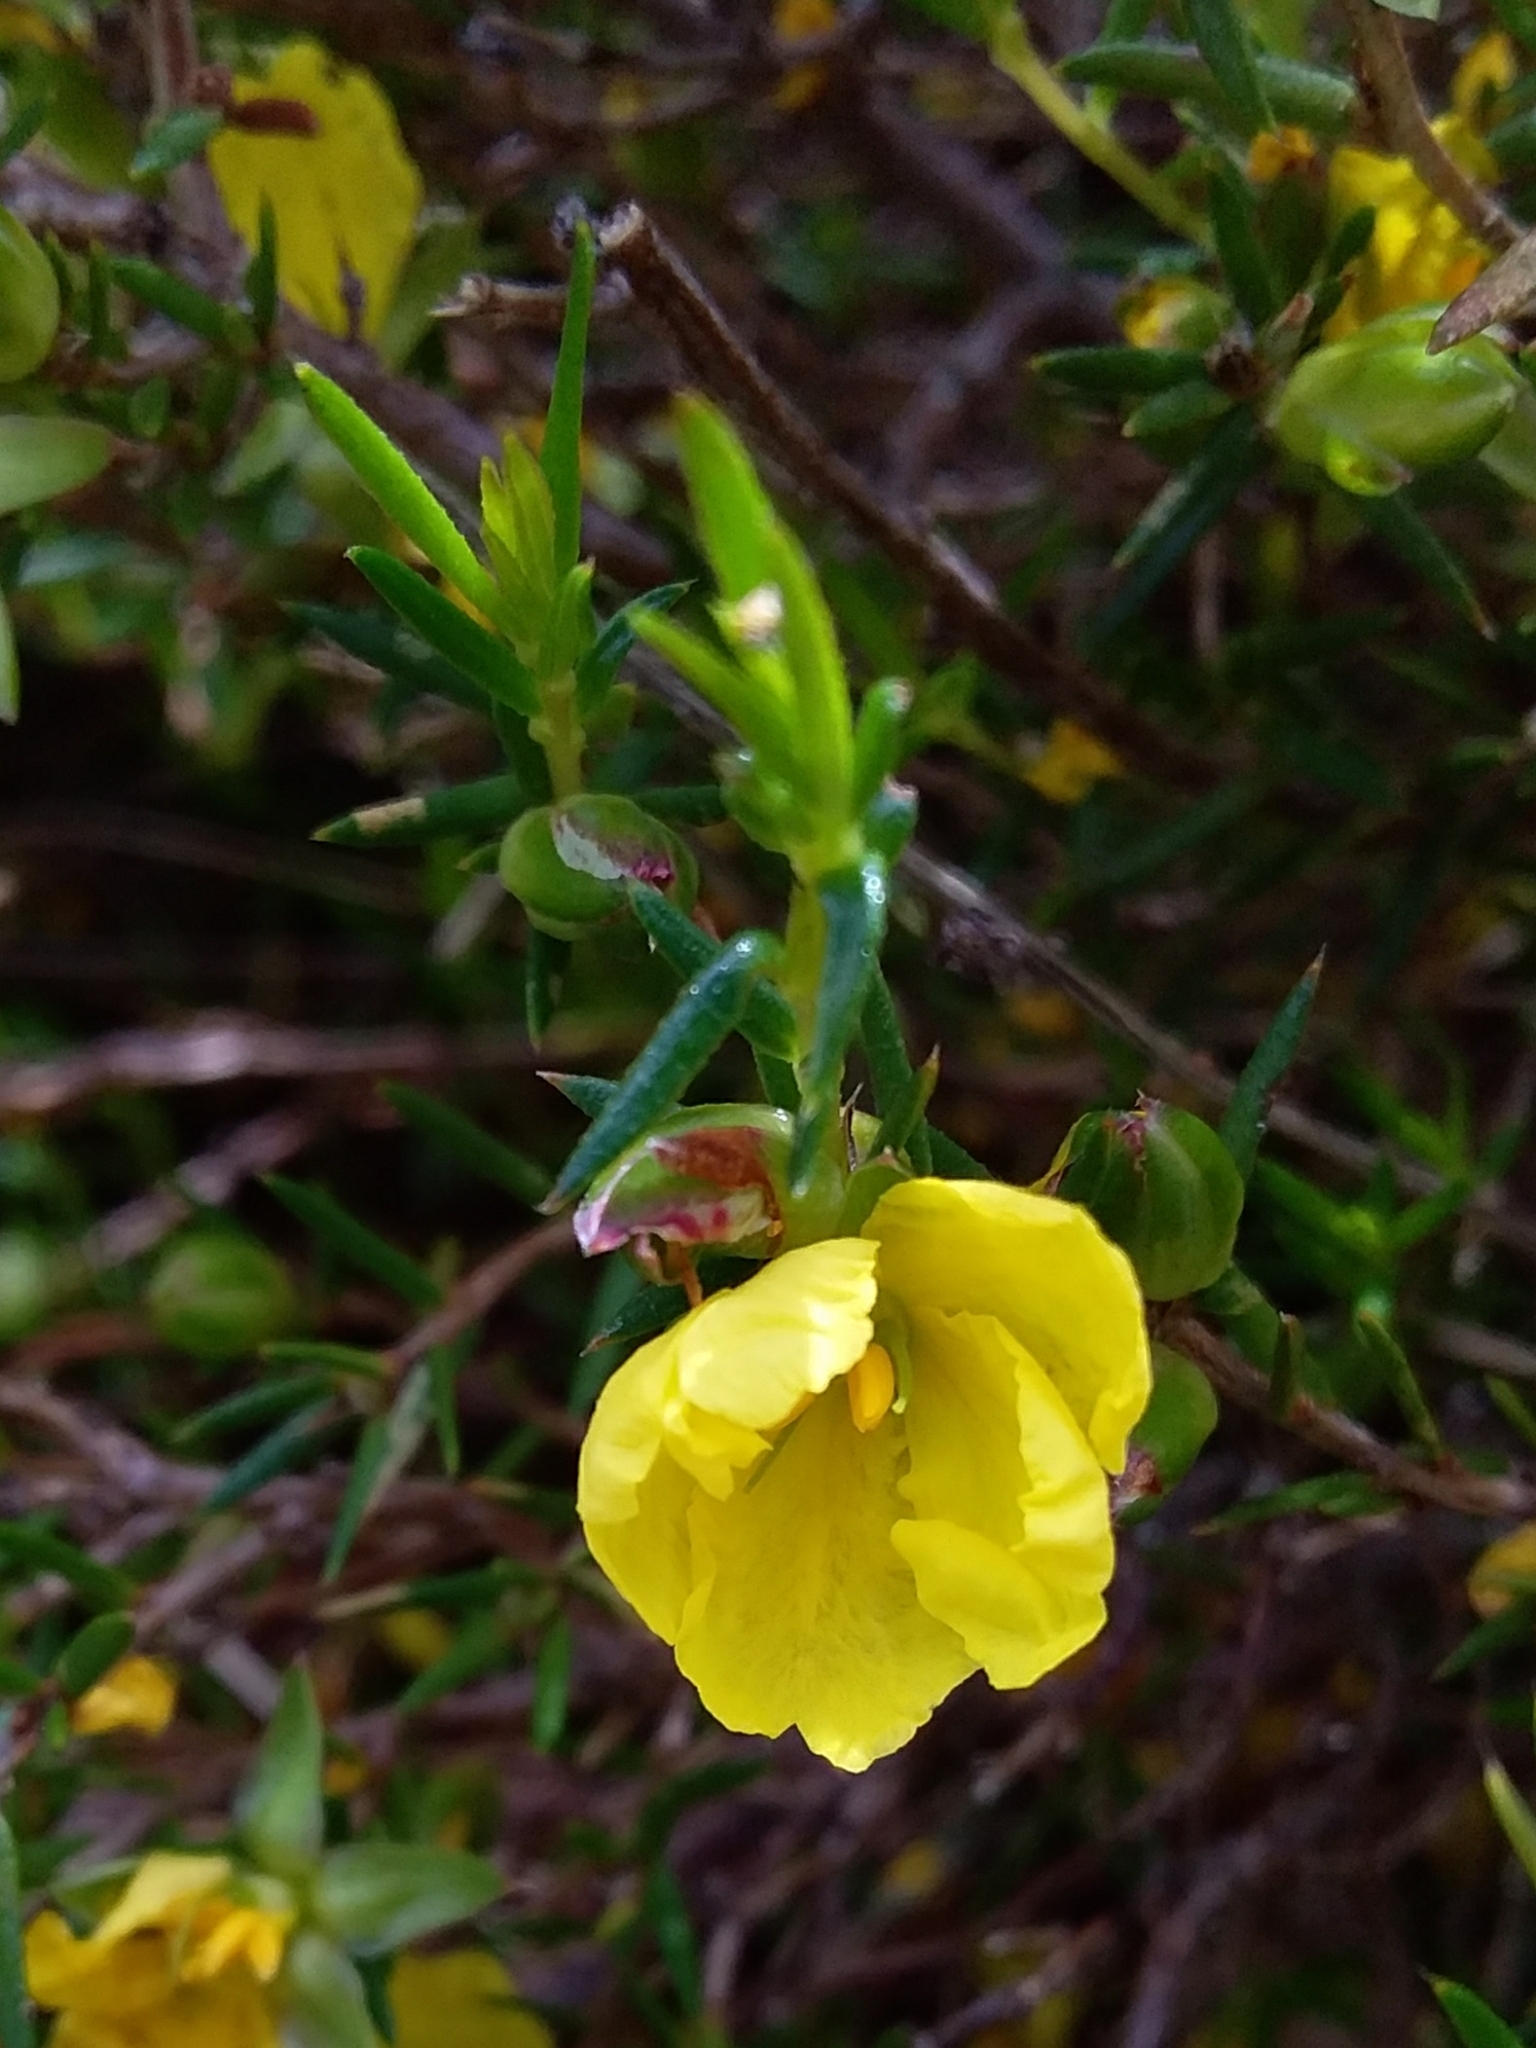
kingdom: Plantae
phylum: Tracheophyta
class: Magnoliopsida
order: Dilleniales
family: Dilleniaceae
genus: Hibbertia
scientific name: Hibbertia exutiacies
